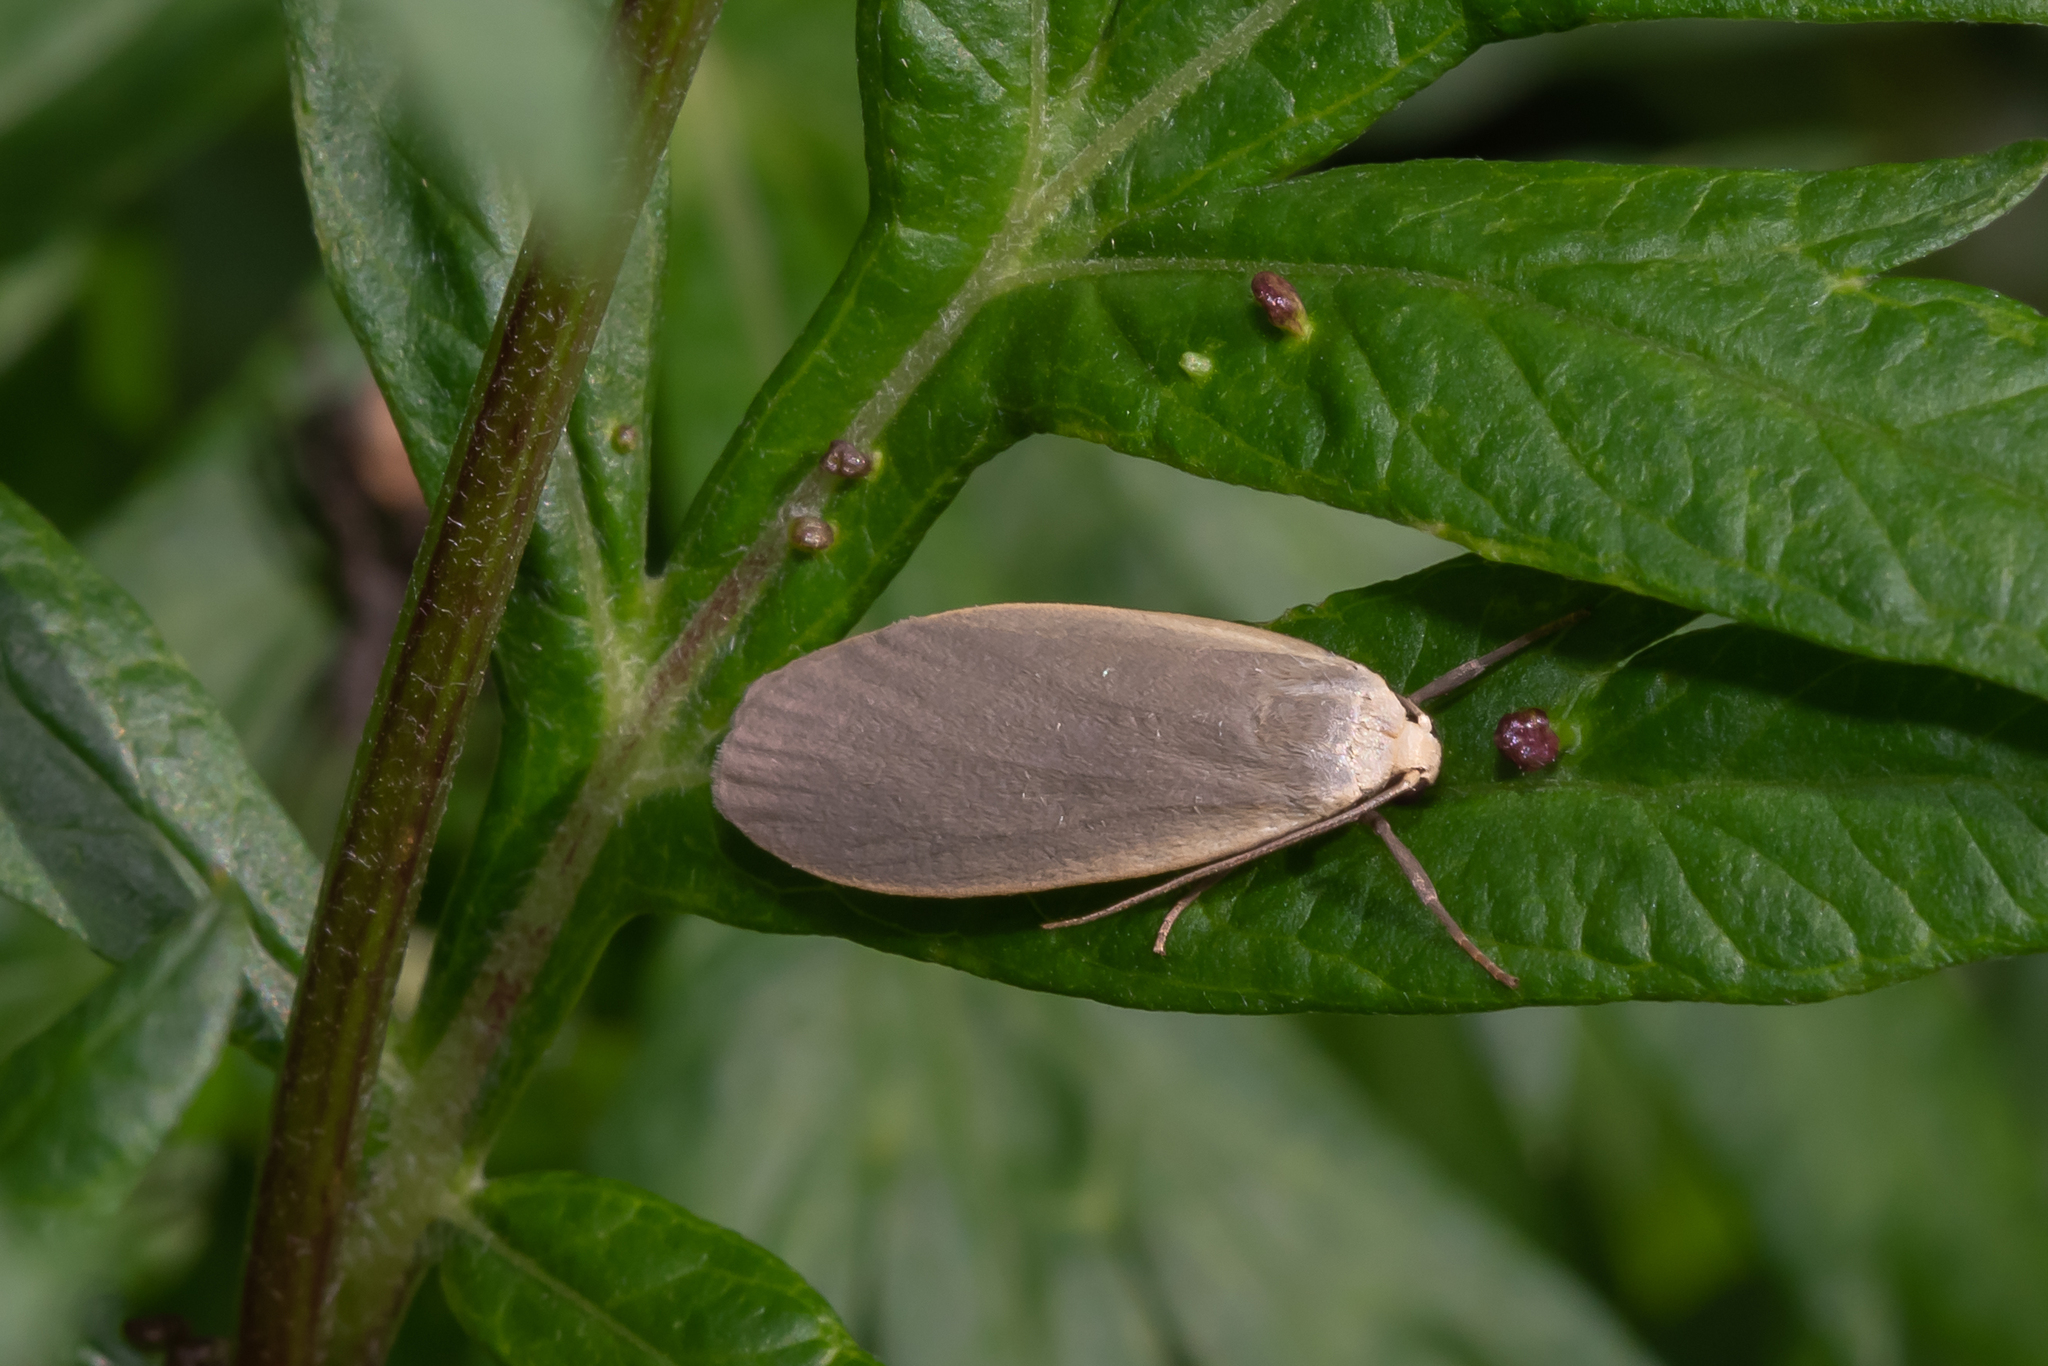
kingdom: Animalia
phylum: Arthropoda
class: Insecta
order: Lepidoptera
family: Erebidae
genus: Collita
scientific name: Collita griseola
